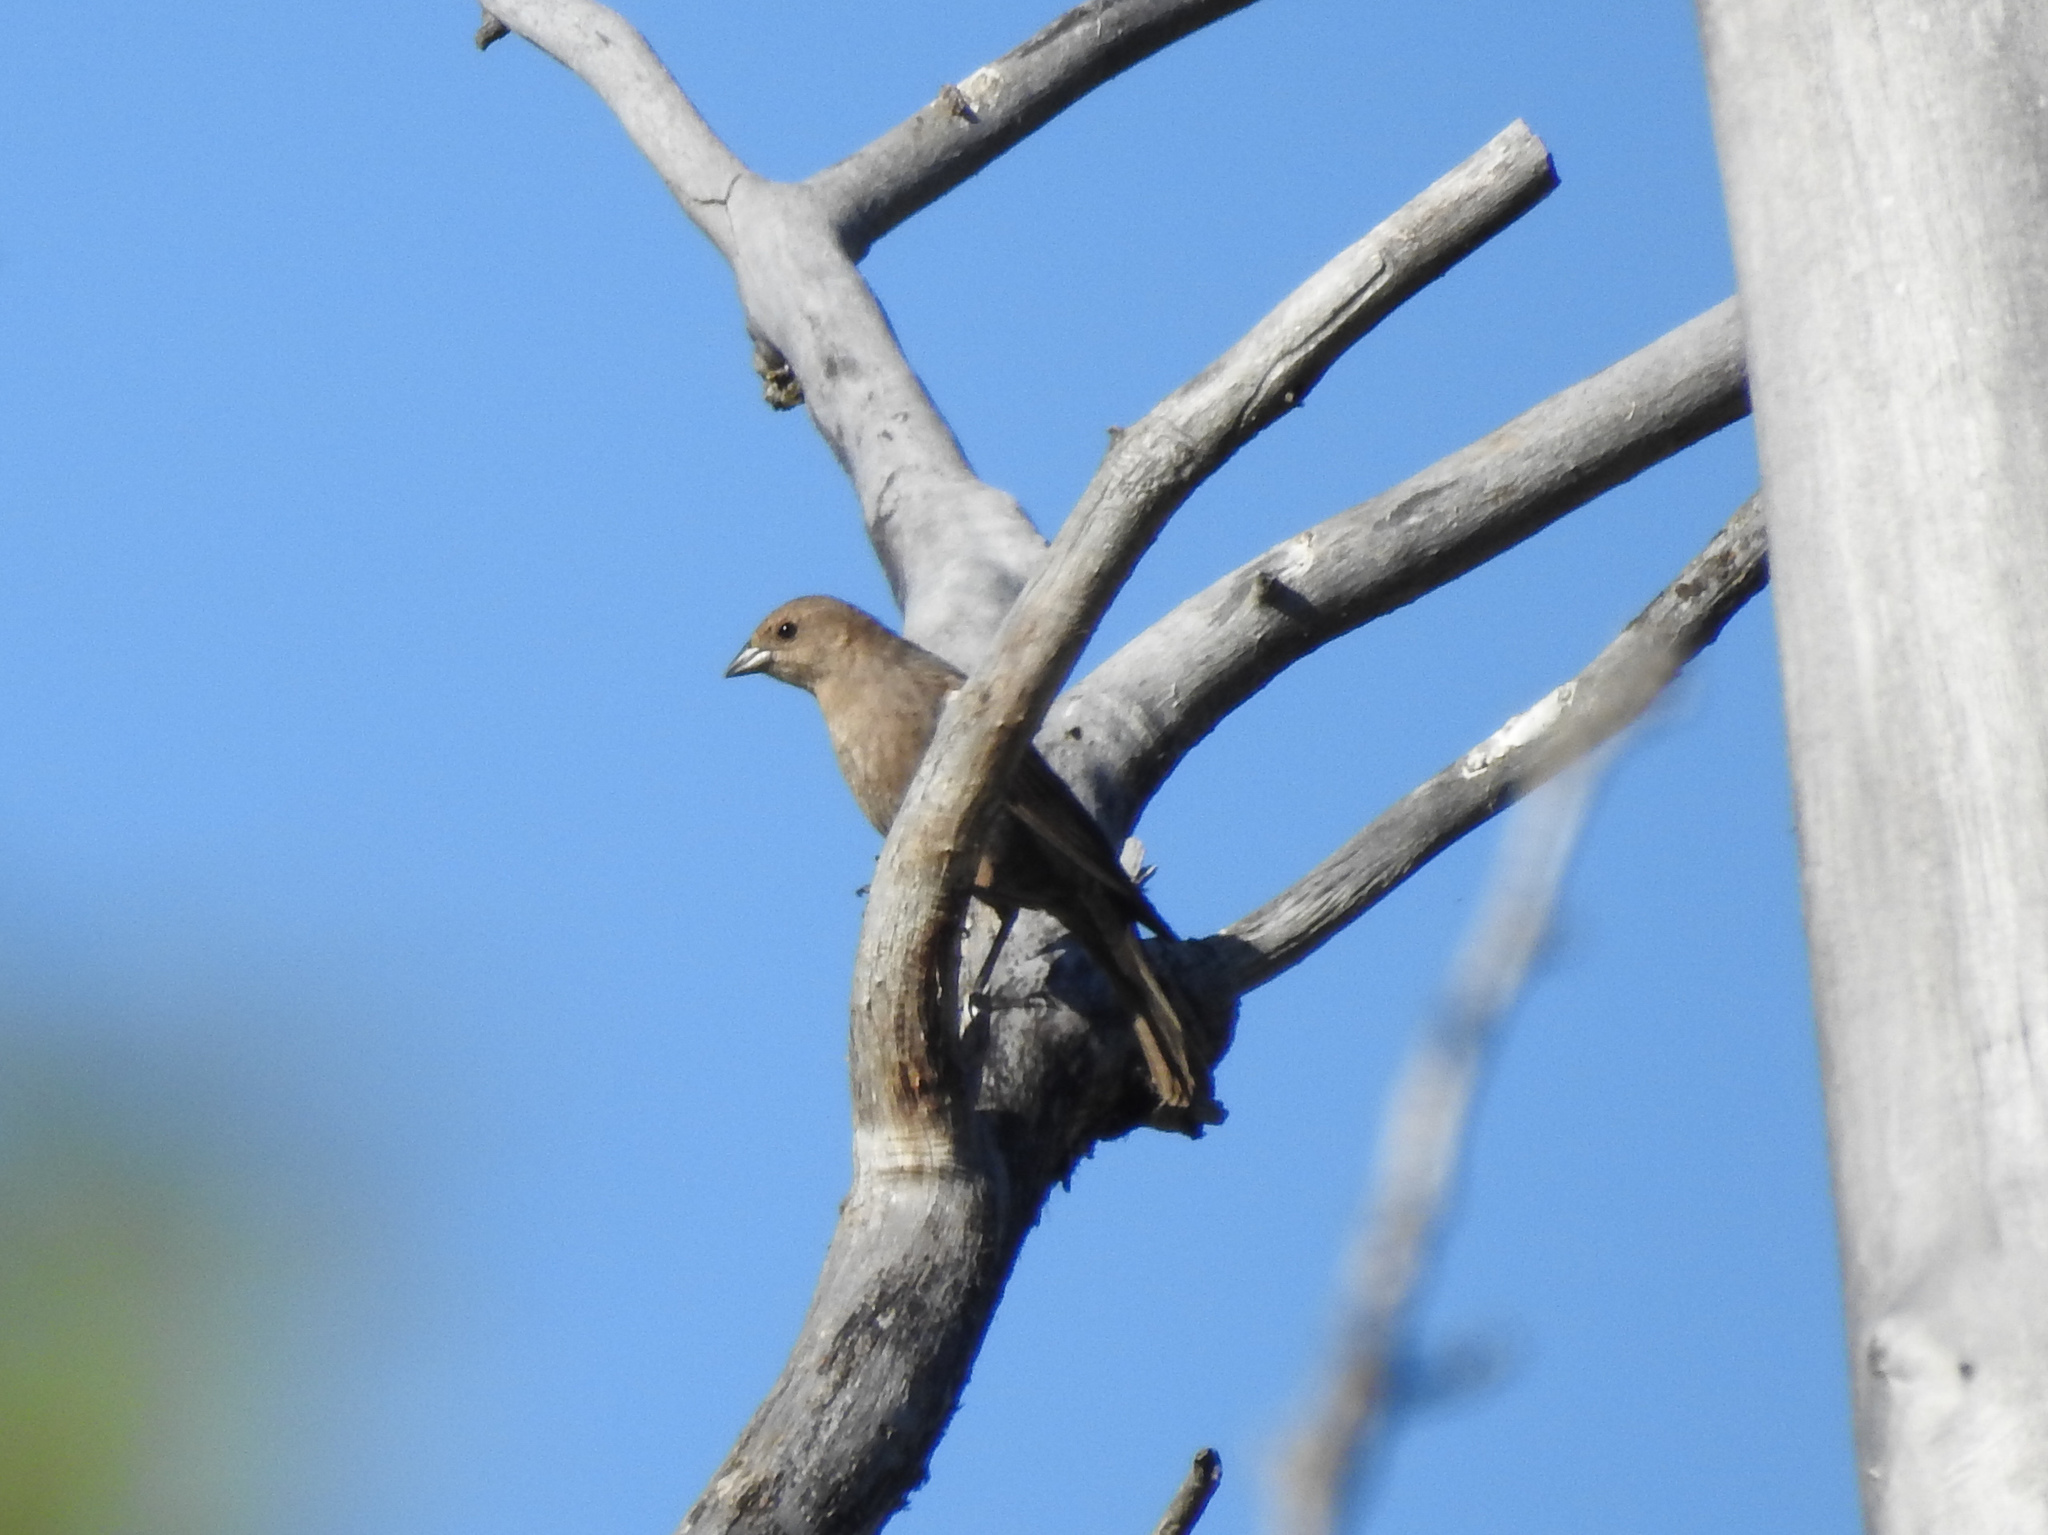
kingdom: Animalia
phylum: Chordata
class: Aves
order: Passeriformes
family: Icteridae
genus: Molothrus
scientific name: Molothrus ater
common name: Brown-headed cowbird
